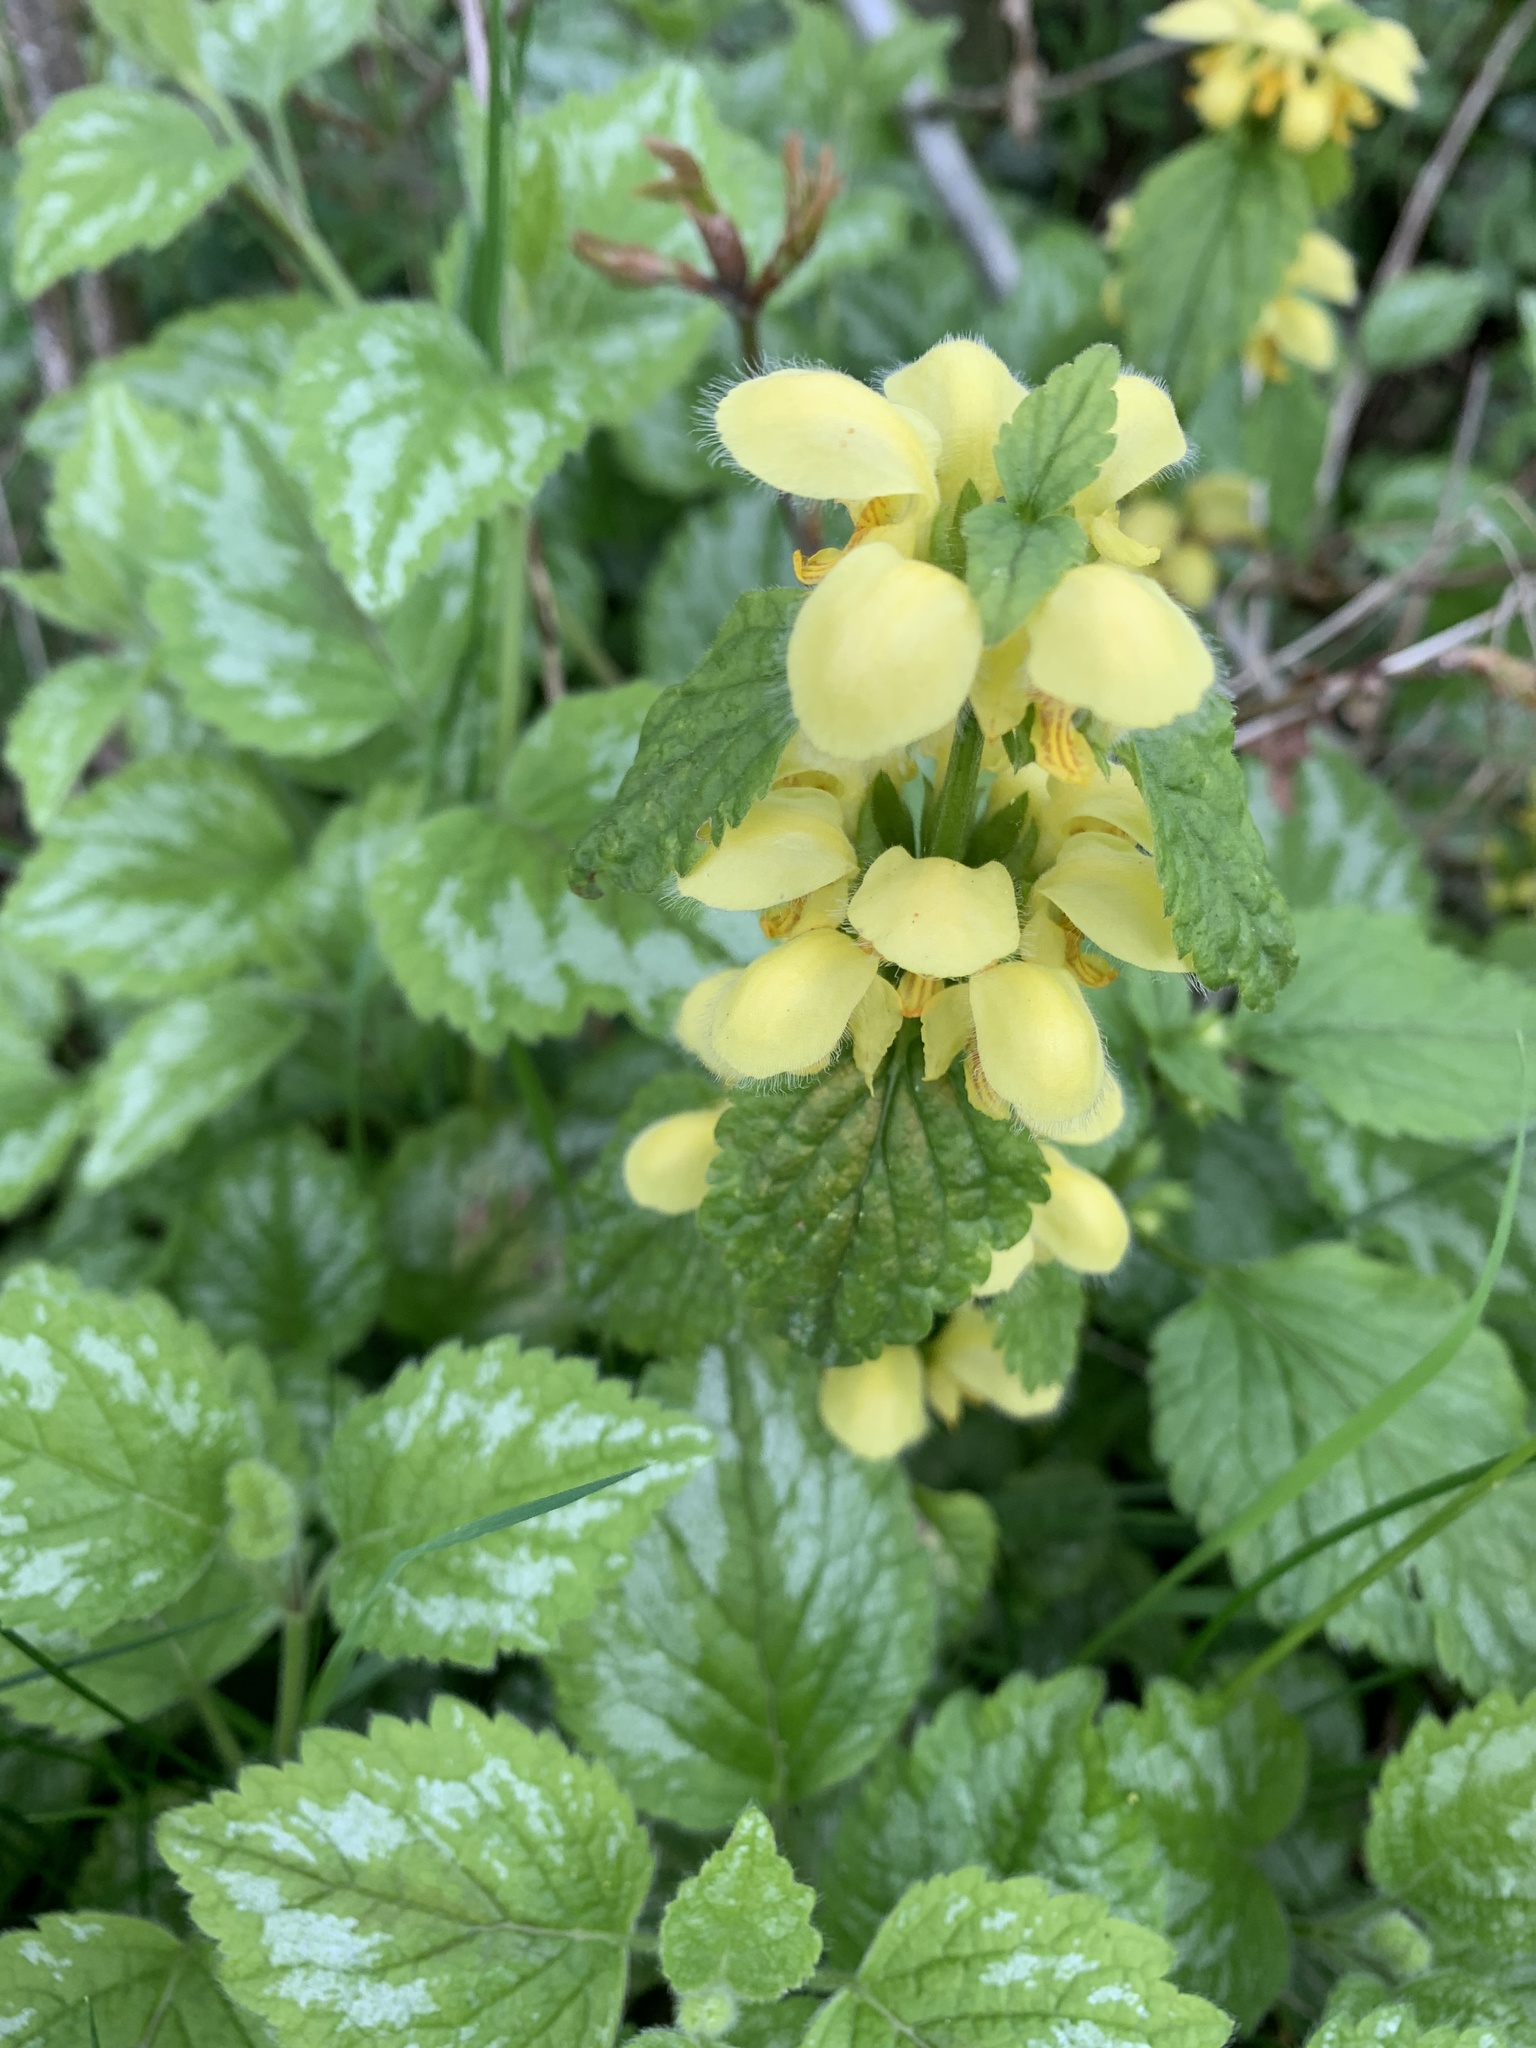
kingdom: Plantae
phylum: Tracheophyta
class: Magnoliopsida
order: Lamiales
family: Lamiaceae
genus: Lamium
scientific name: Lamium galeobdolon
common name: Yellow archangel
